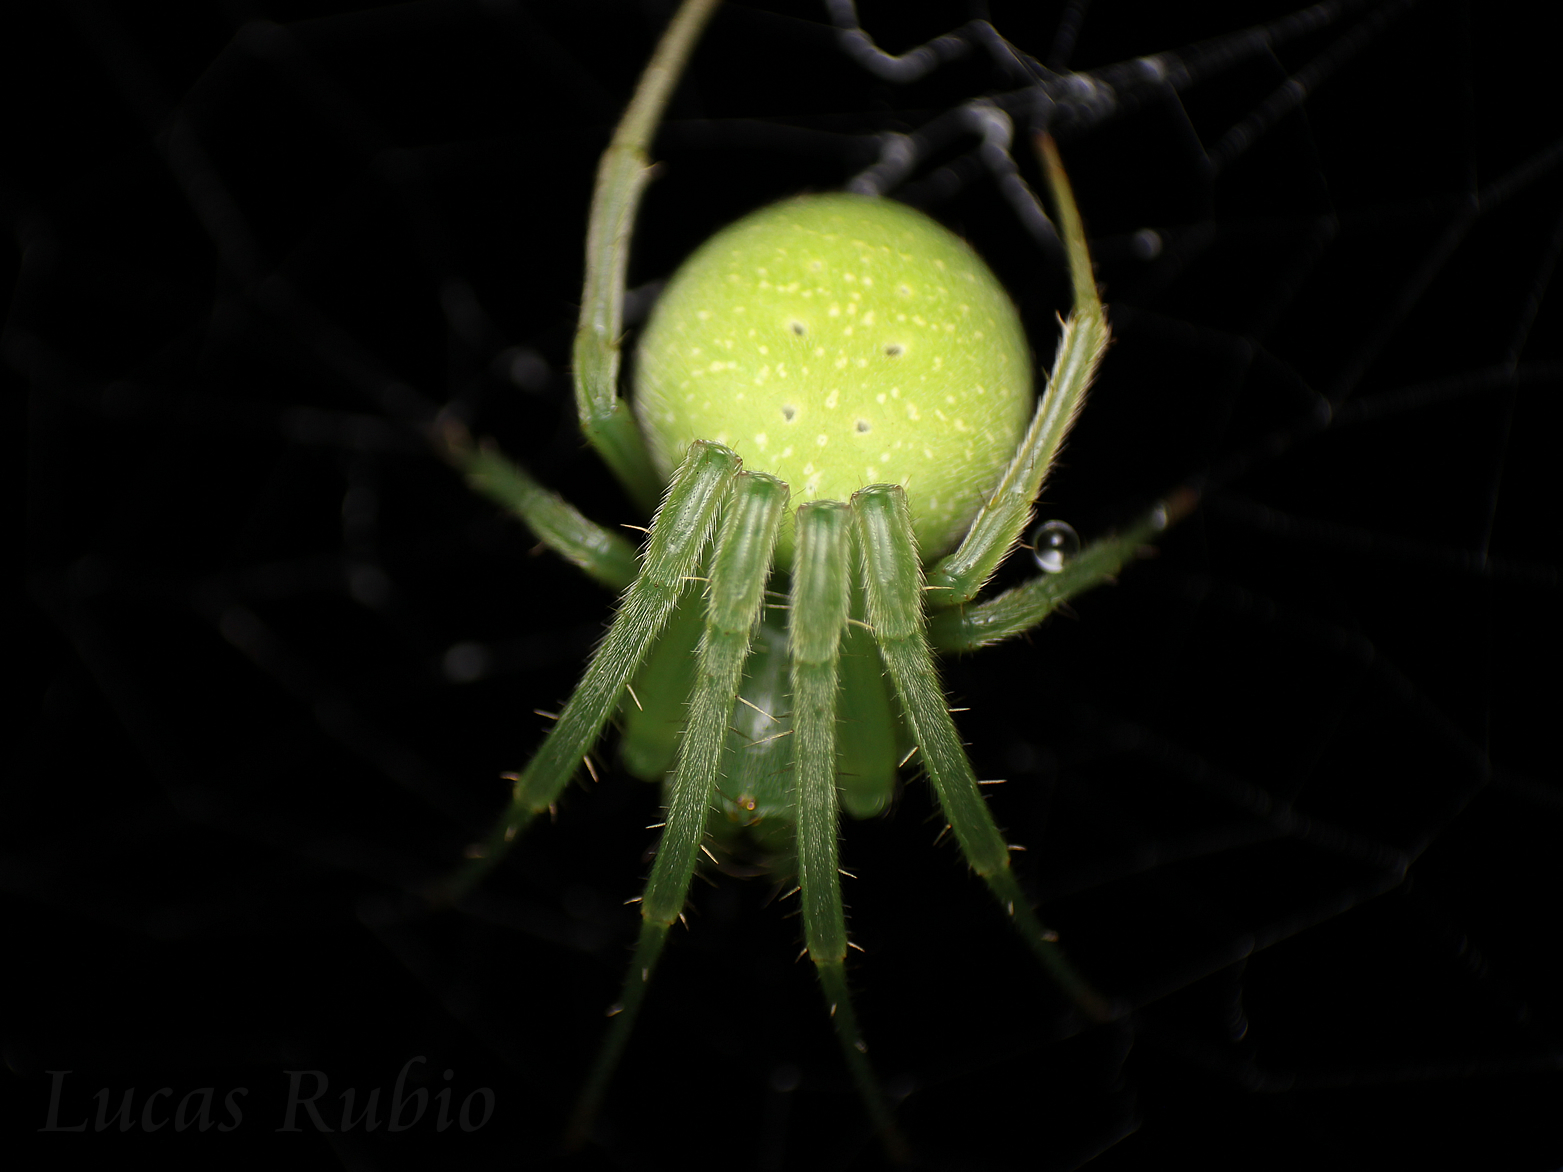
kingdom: Animalia
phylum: Arthropoda
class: Arachnida
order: Araneae
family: Araneidae
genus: Araneus
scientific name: Araneus uniformis
